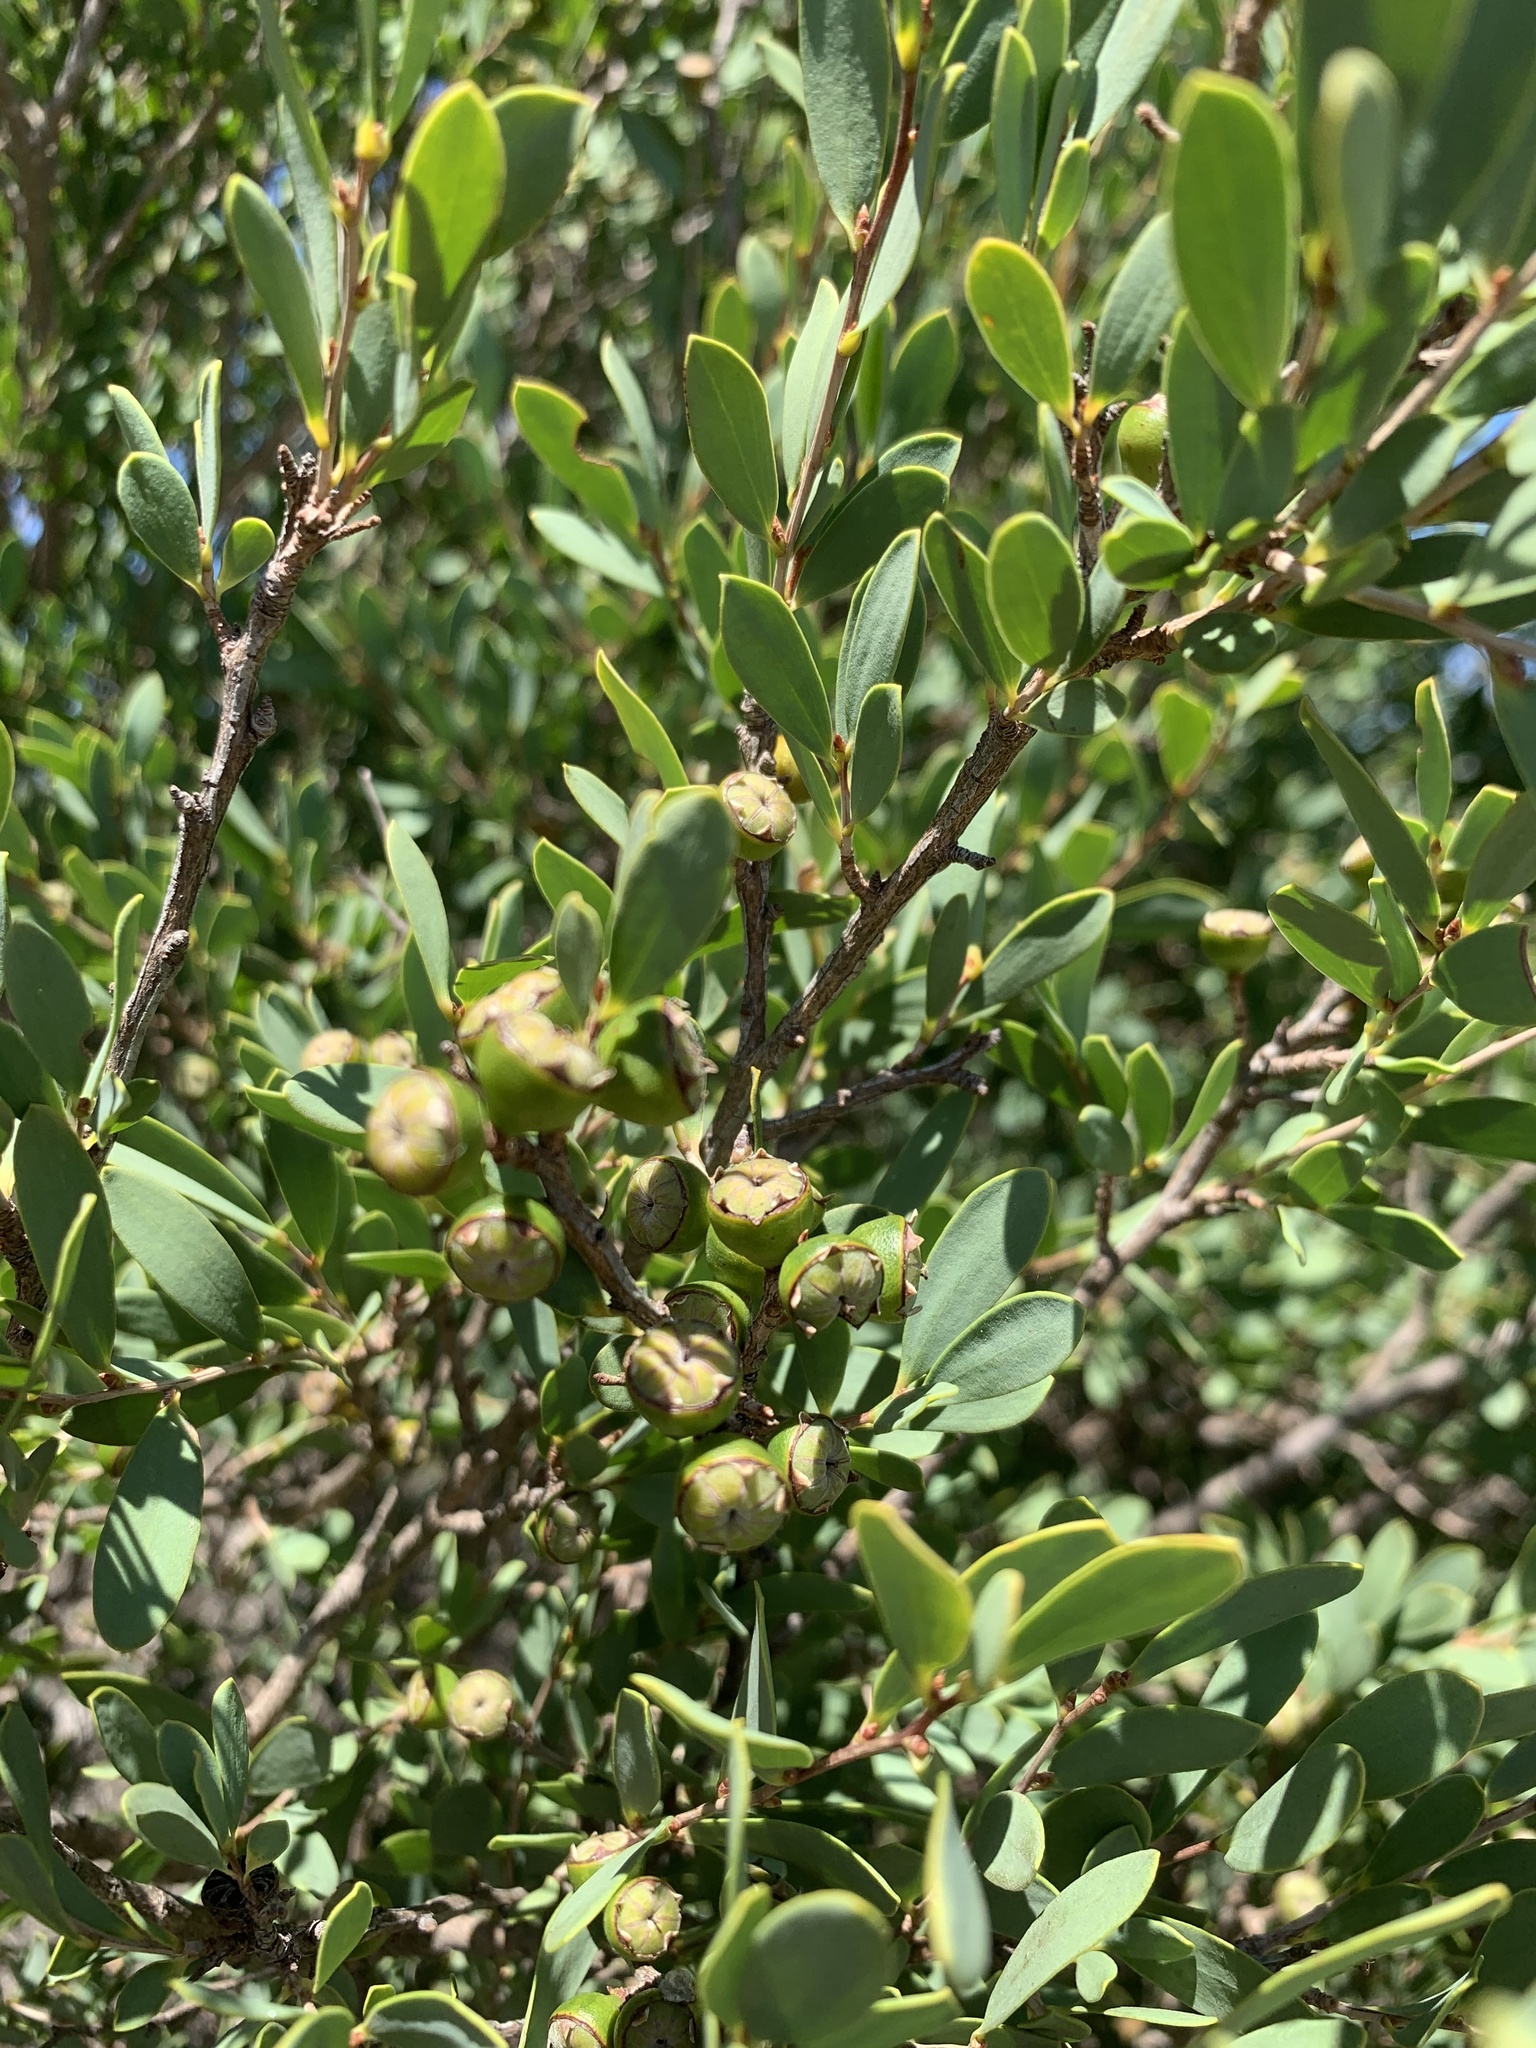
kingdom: Plantae
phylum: Tracheophyta
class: Magnoliopsida
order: Myrtales
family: Myrtaceae
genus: Leptospermum
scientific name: Leptospermum laevigatum
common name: Australian teatree
